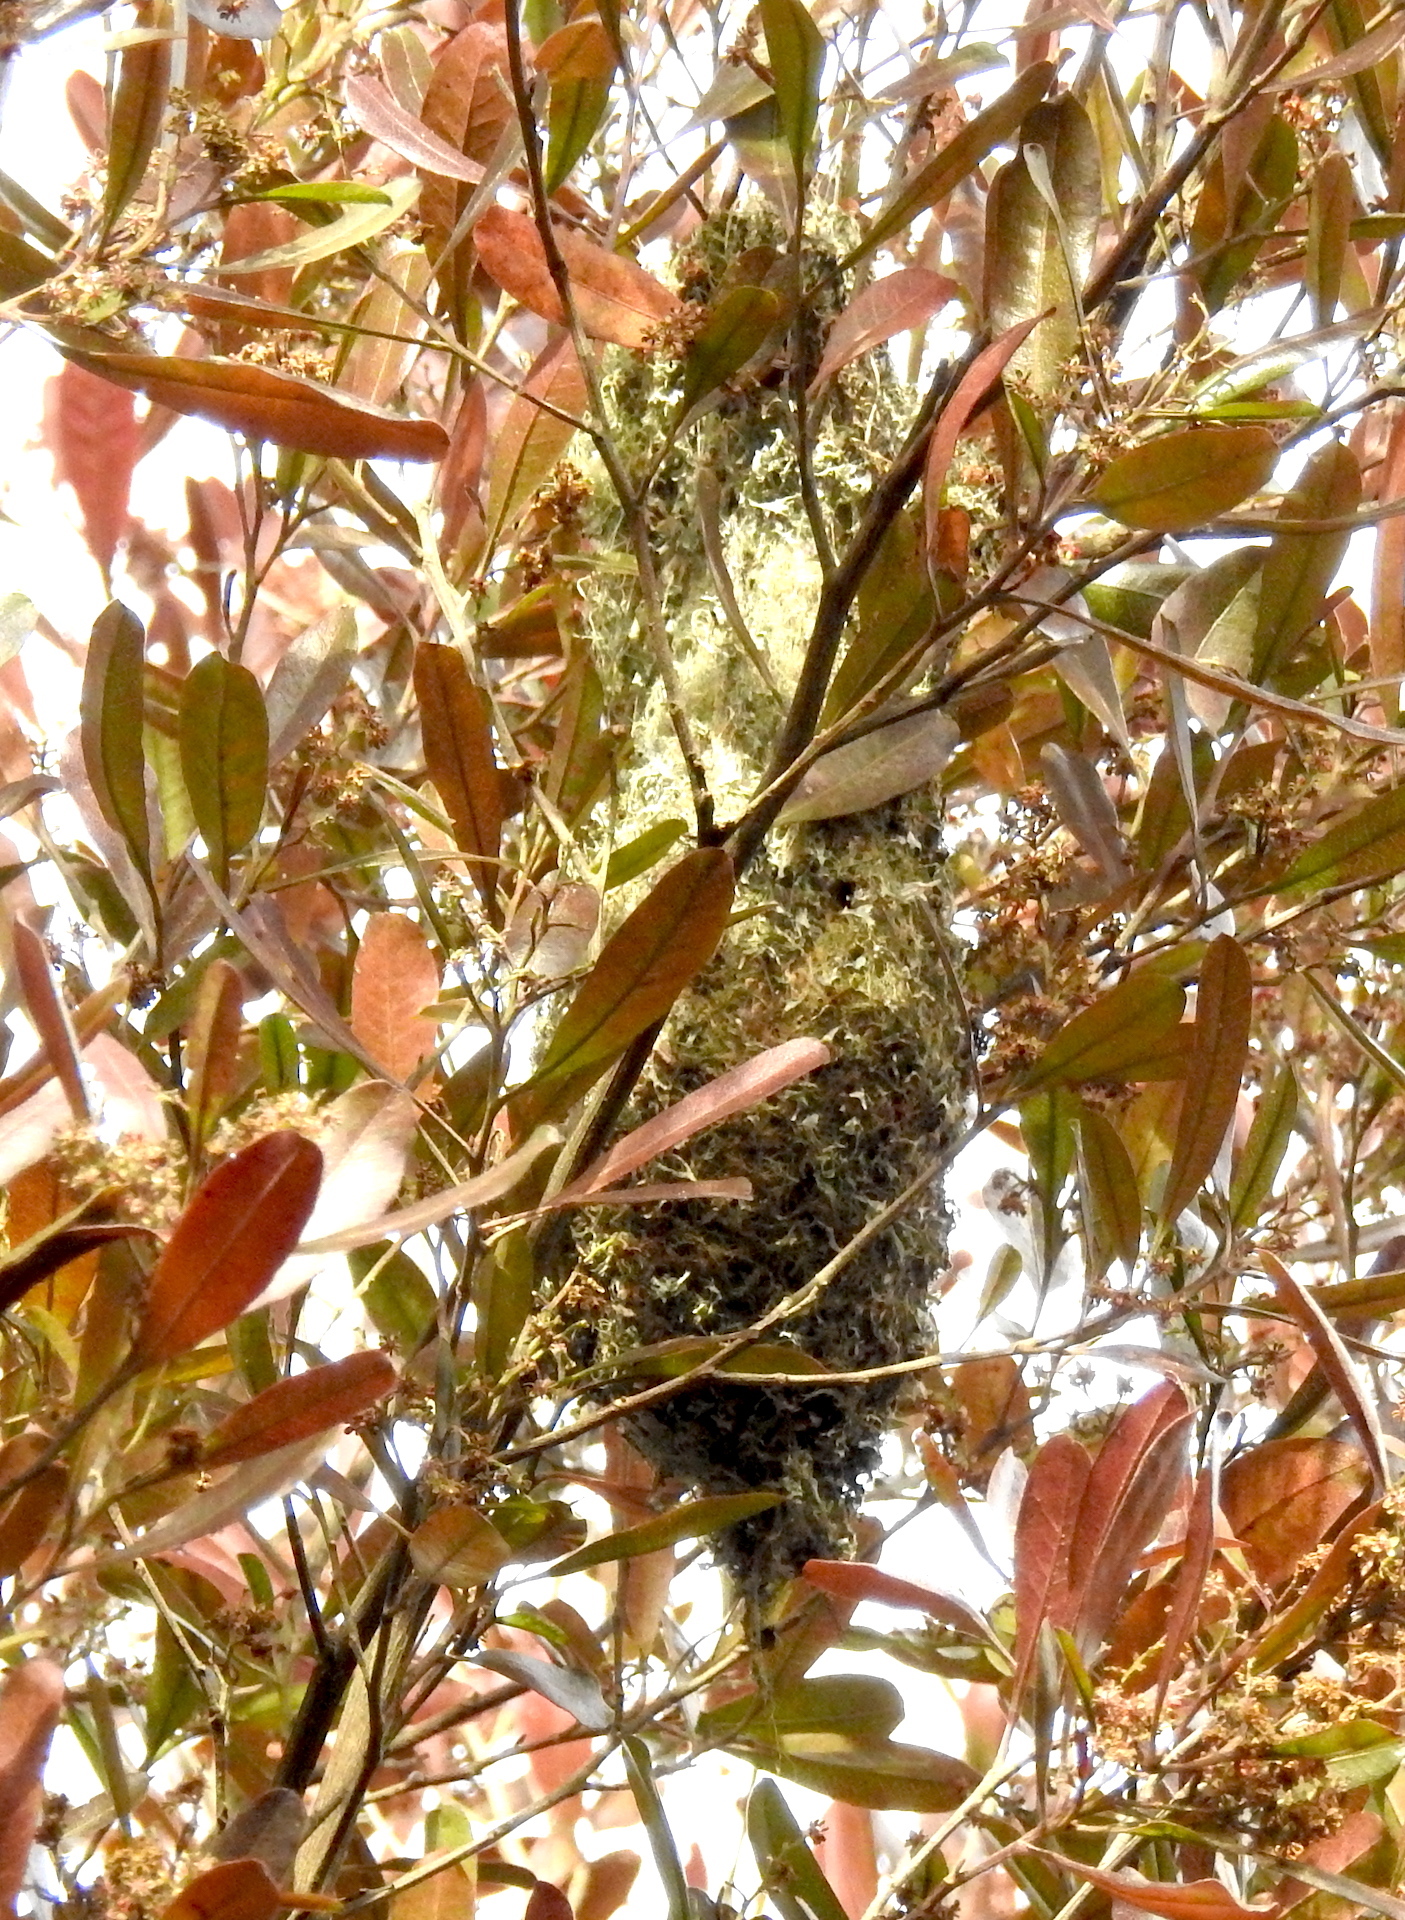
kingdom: Animalia
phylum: Chordata
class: Aves
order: Passeriformes
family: Aegithalidae
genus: Psaltriparus
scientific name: Psaltriparus minimus
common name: American bushtit
